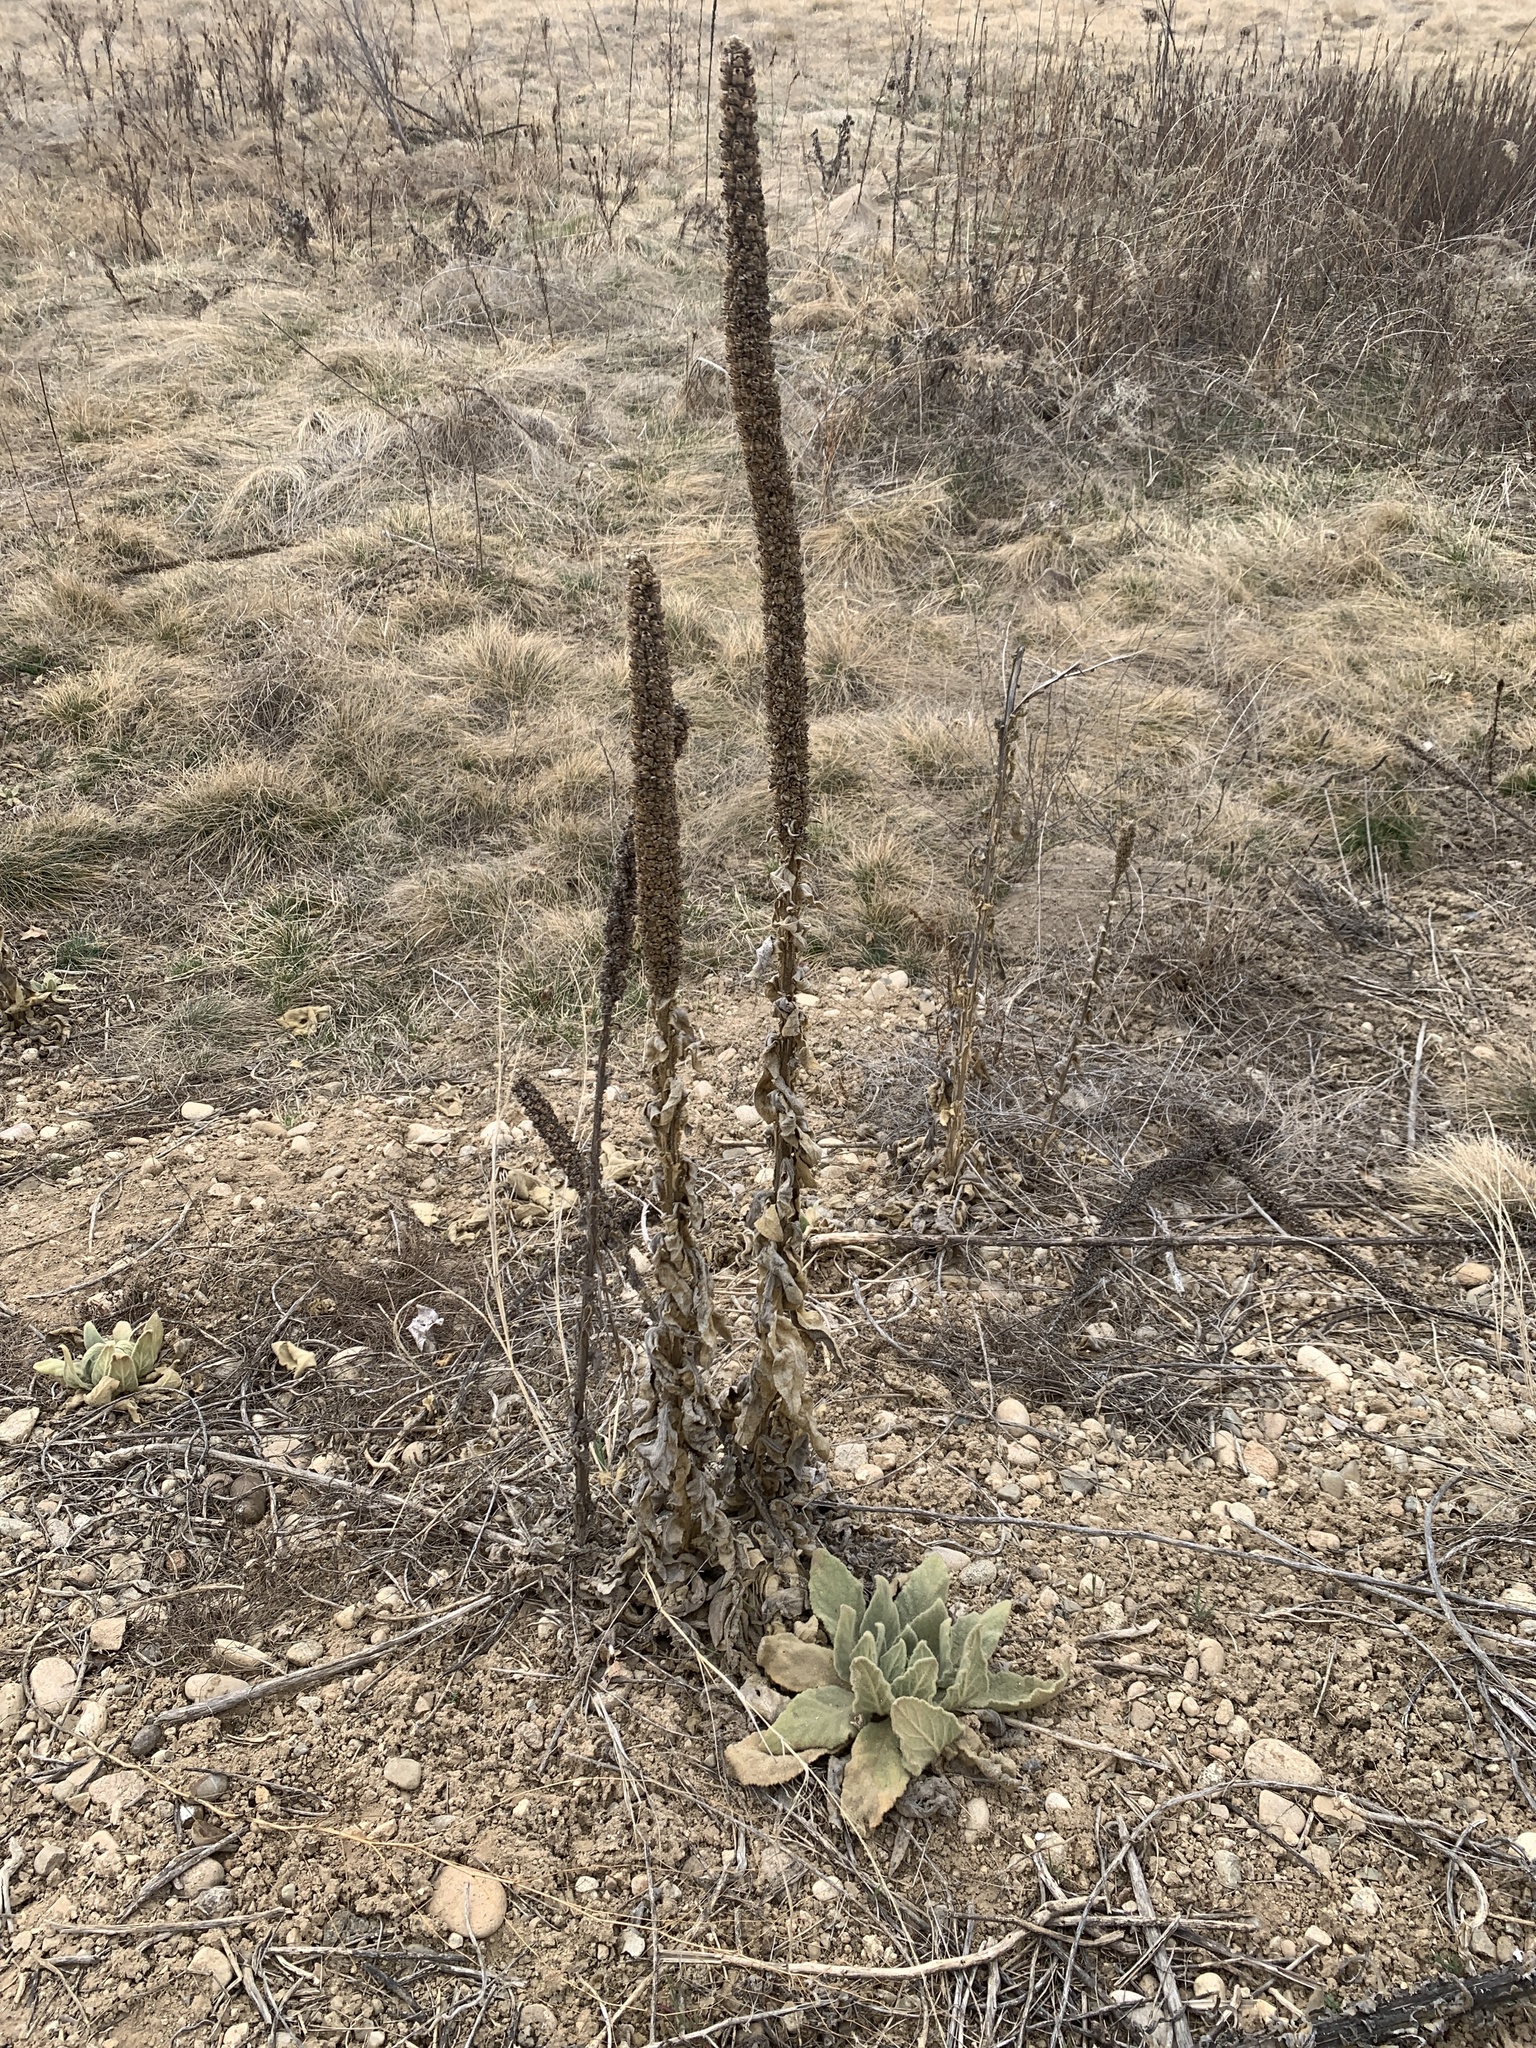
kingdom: Plantae
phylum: Tracheophyta
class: Magnoliopsida
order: Lamiales
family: Scrophulariaceae
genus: Verbascum
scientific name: Verbascum thapsus
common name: Common mullein
